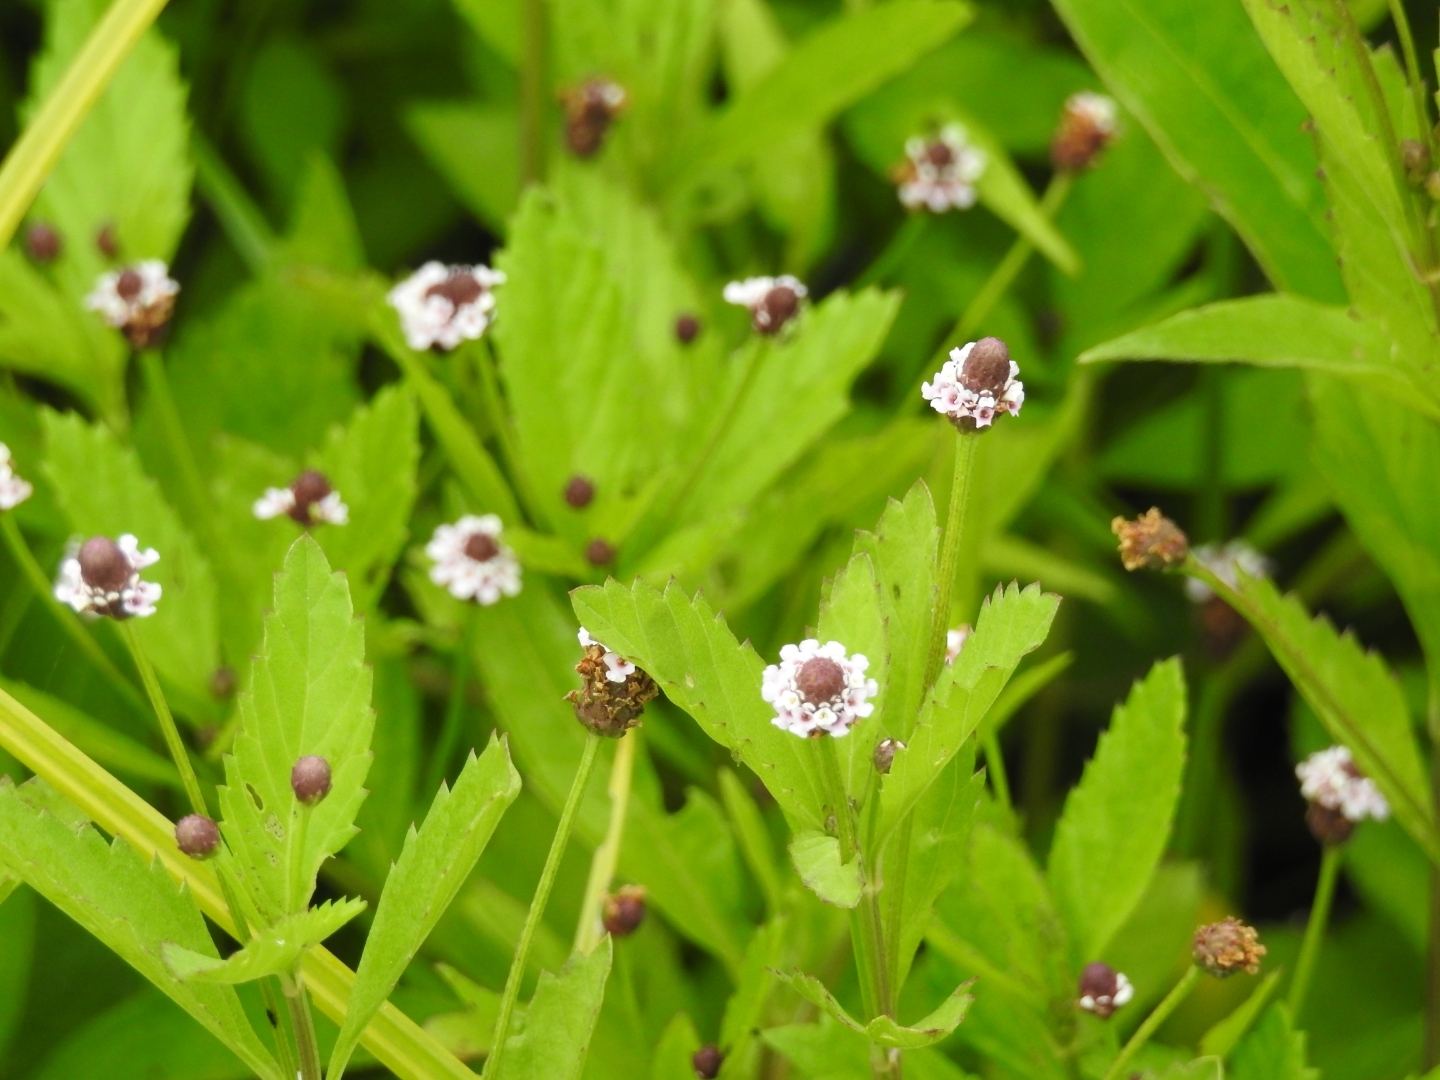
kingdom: Plantae
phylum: Tracheophyta
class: Magnoliopsida
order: Lamiales
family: Verbenaceae
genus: Phyla
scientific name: Phyla lanceolata
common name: Northern fogfruit
